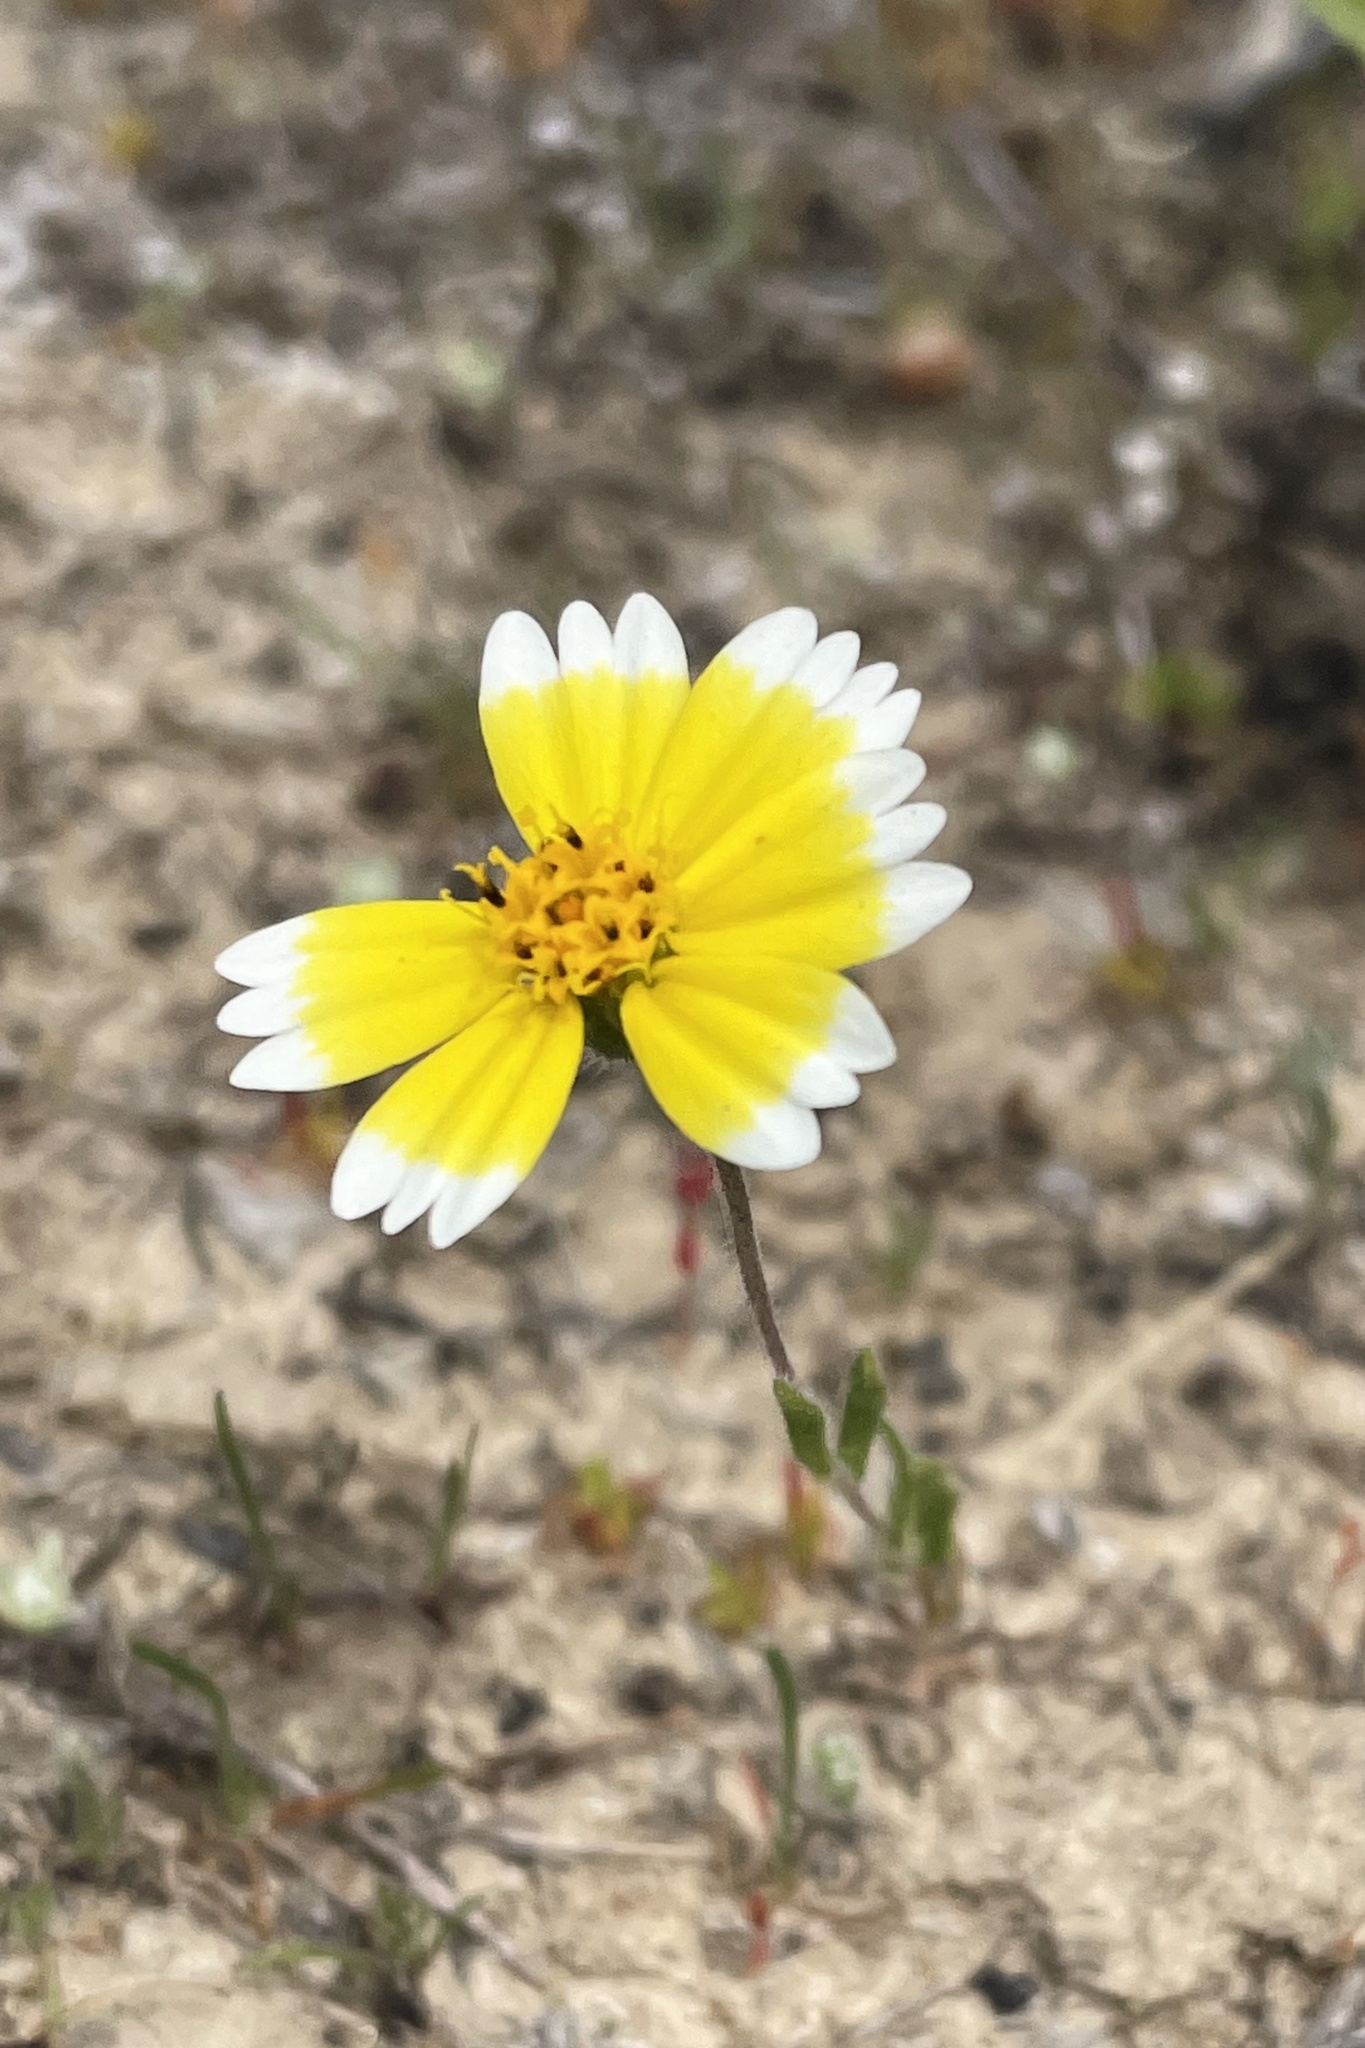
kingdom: Plantae
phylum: Tracheophyta
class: Magnoliopsida
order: Asterales
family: Asteraceae
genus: Layia
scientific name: Layia platyglossa
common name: Tidy-tips
